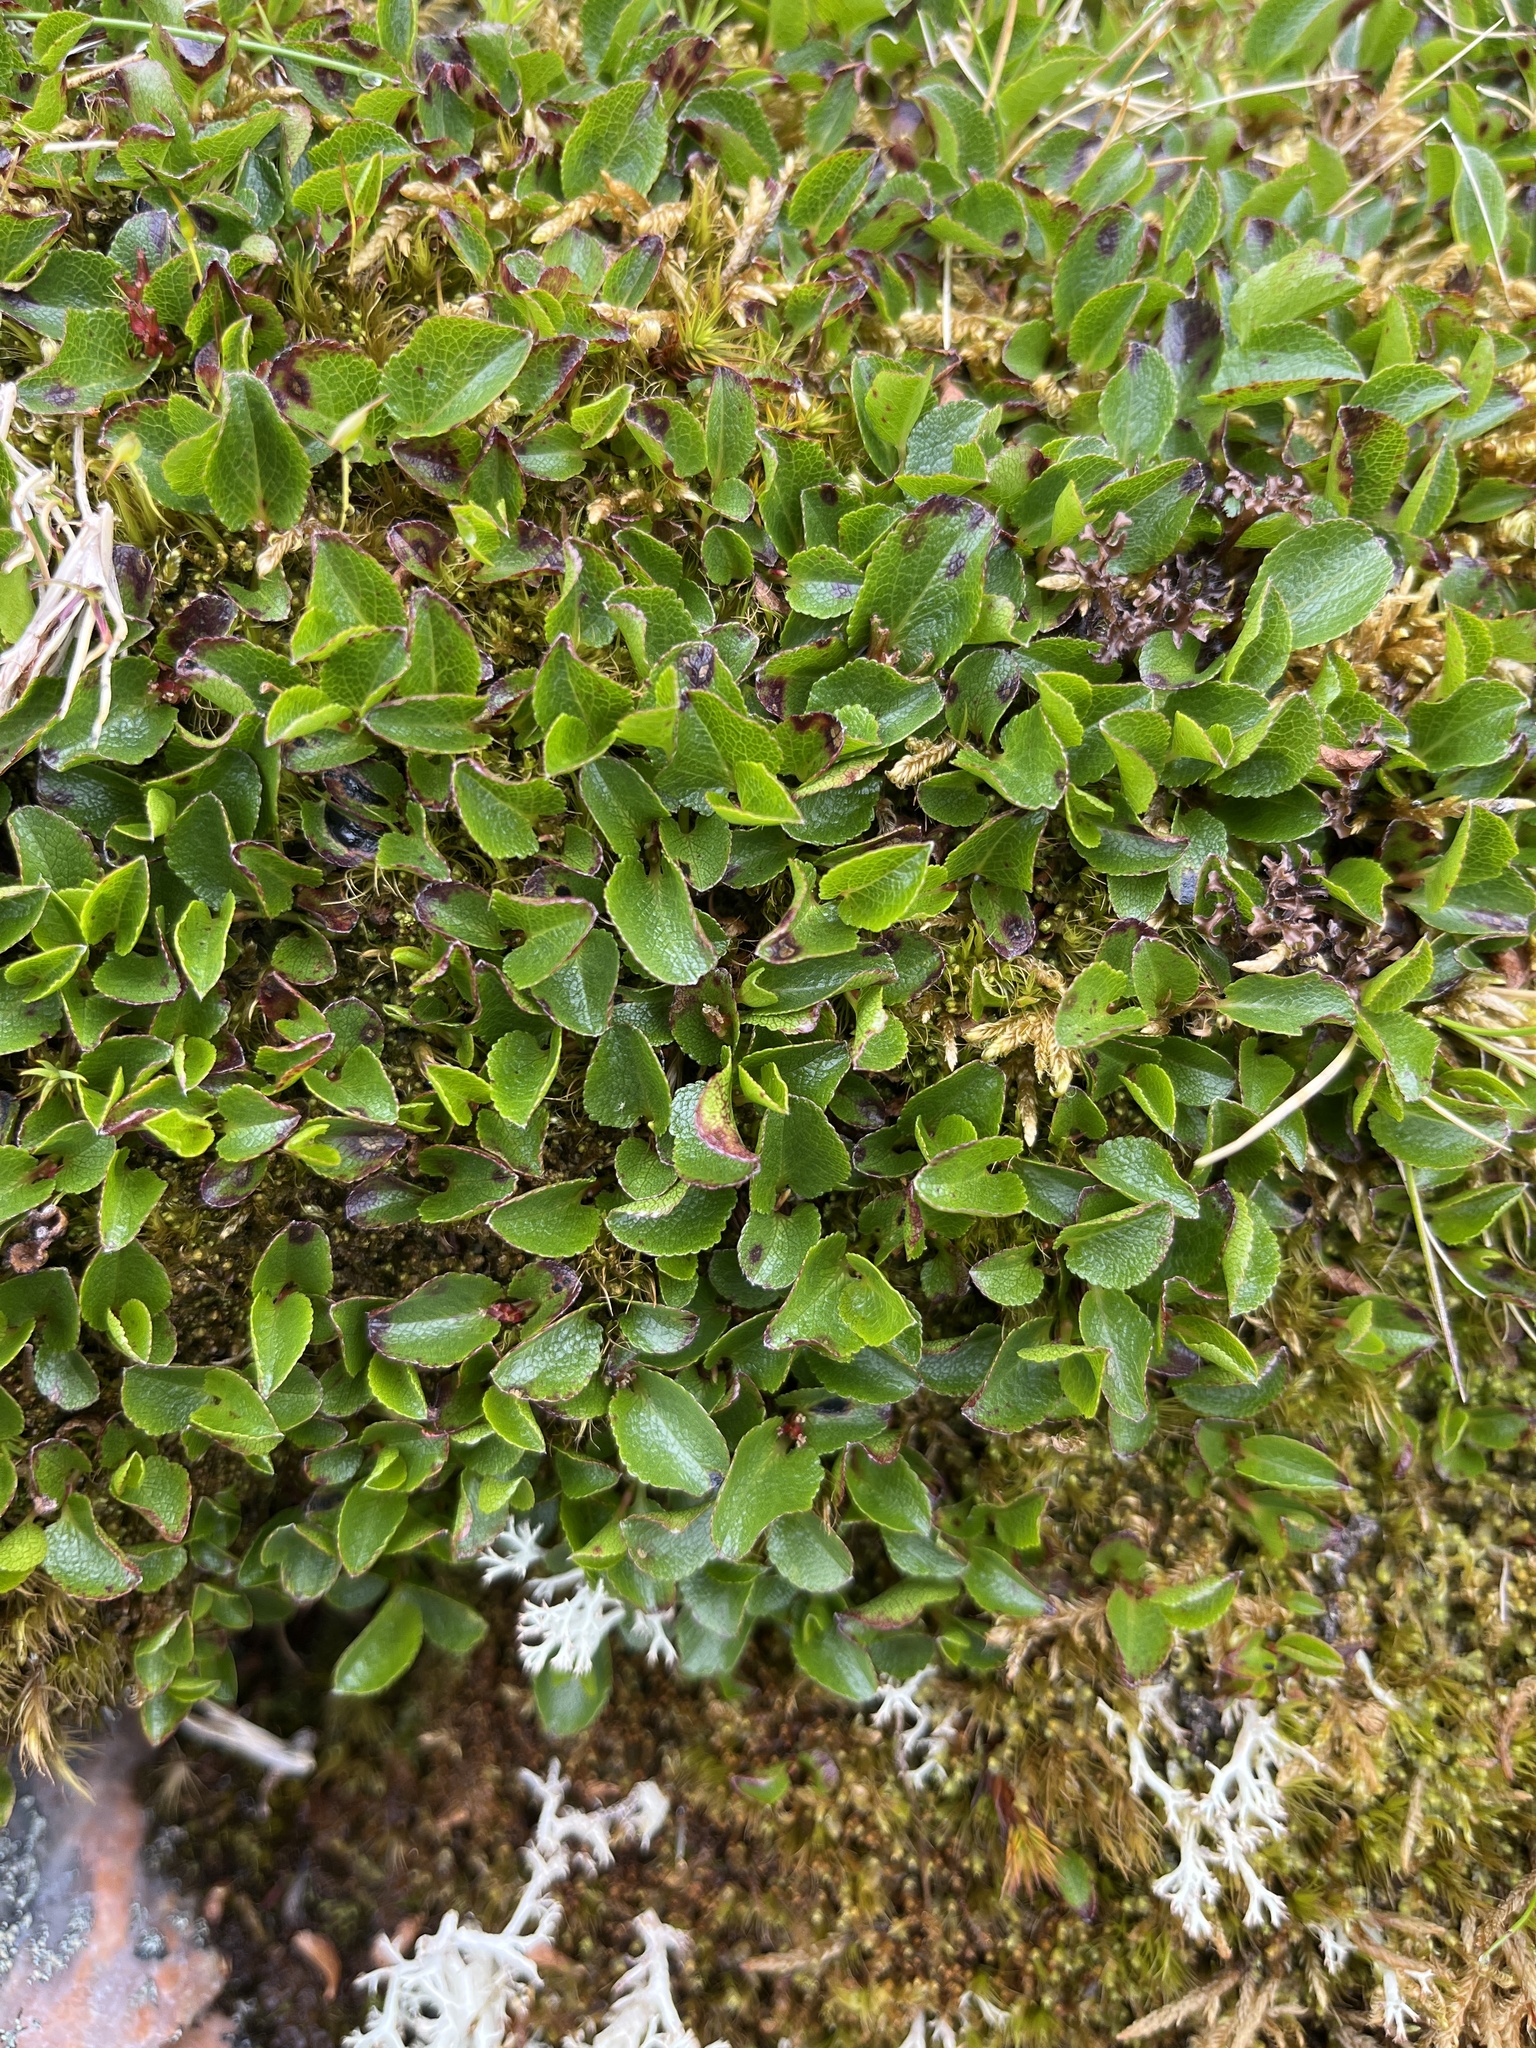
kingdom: Plantae
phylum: Tracheophyta
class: Magnoliopsida
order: Malpighiales
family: Salicaceae
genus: Salix
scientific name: Salix herbacea
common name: Dwarf willow
